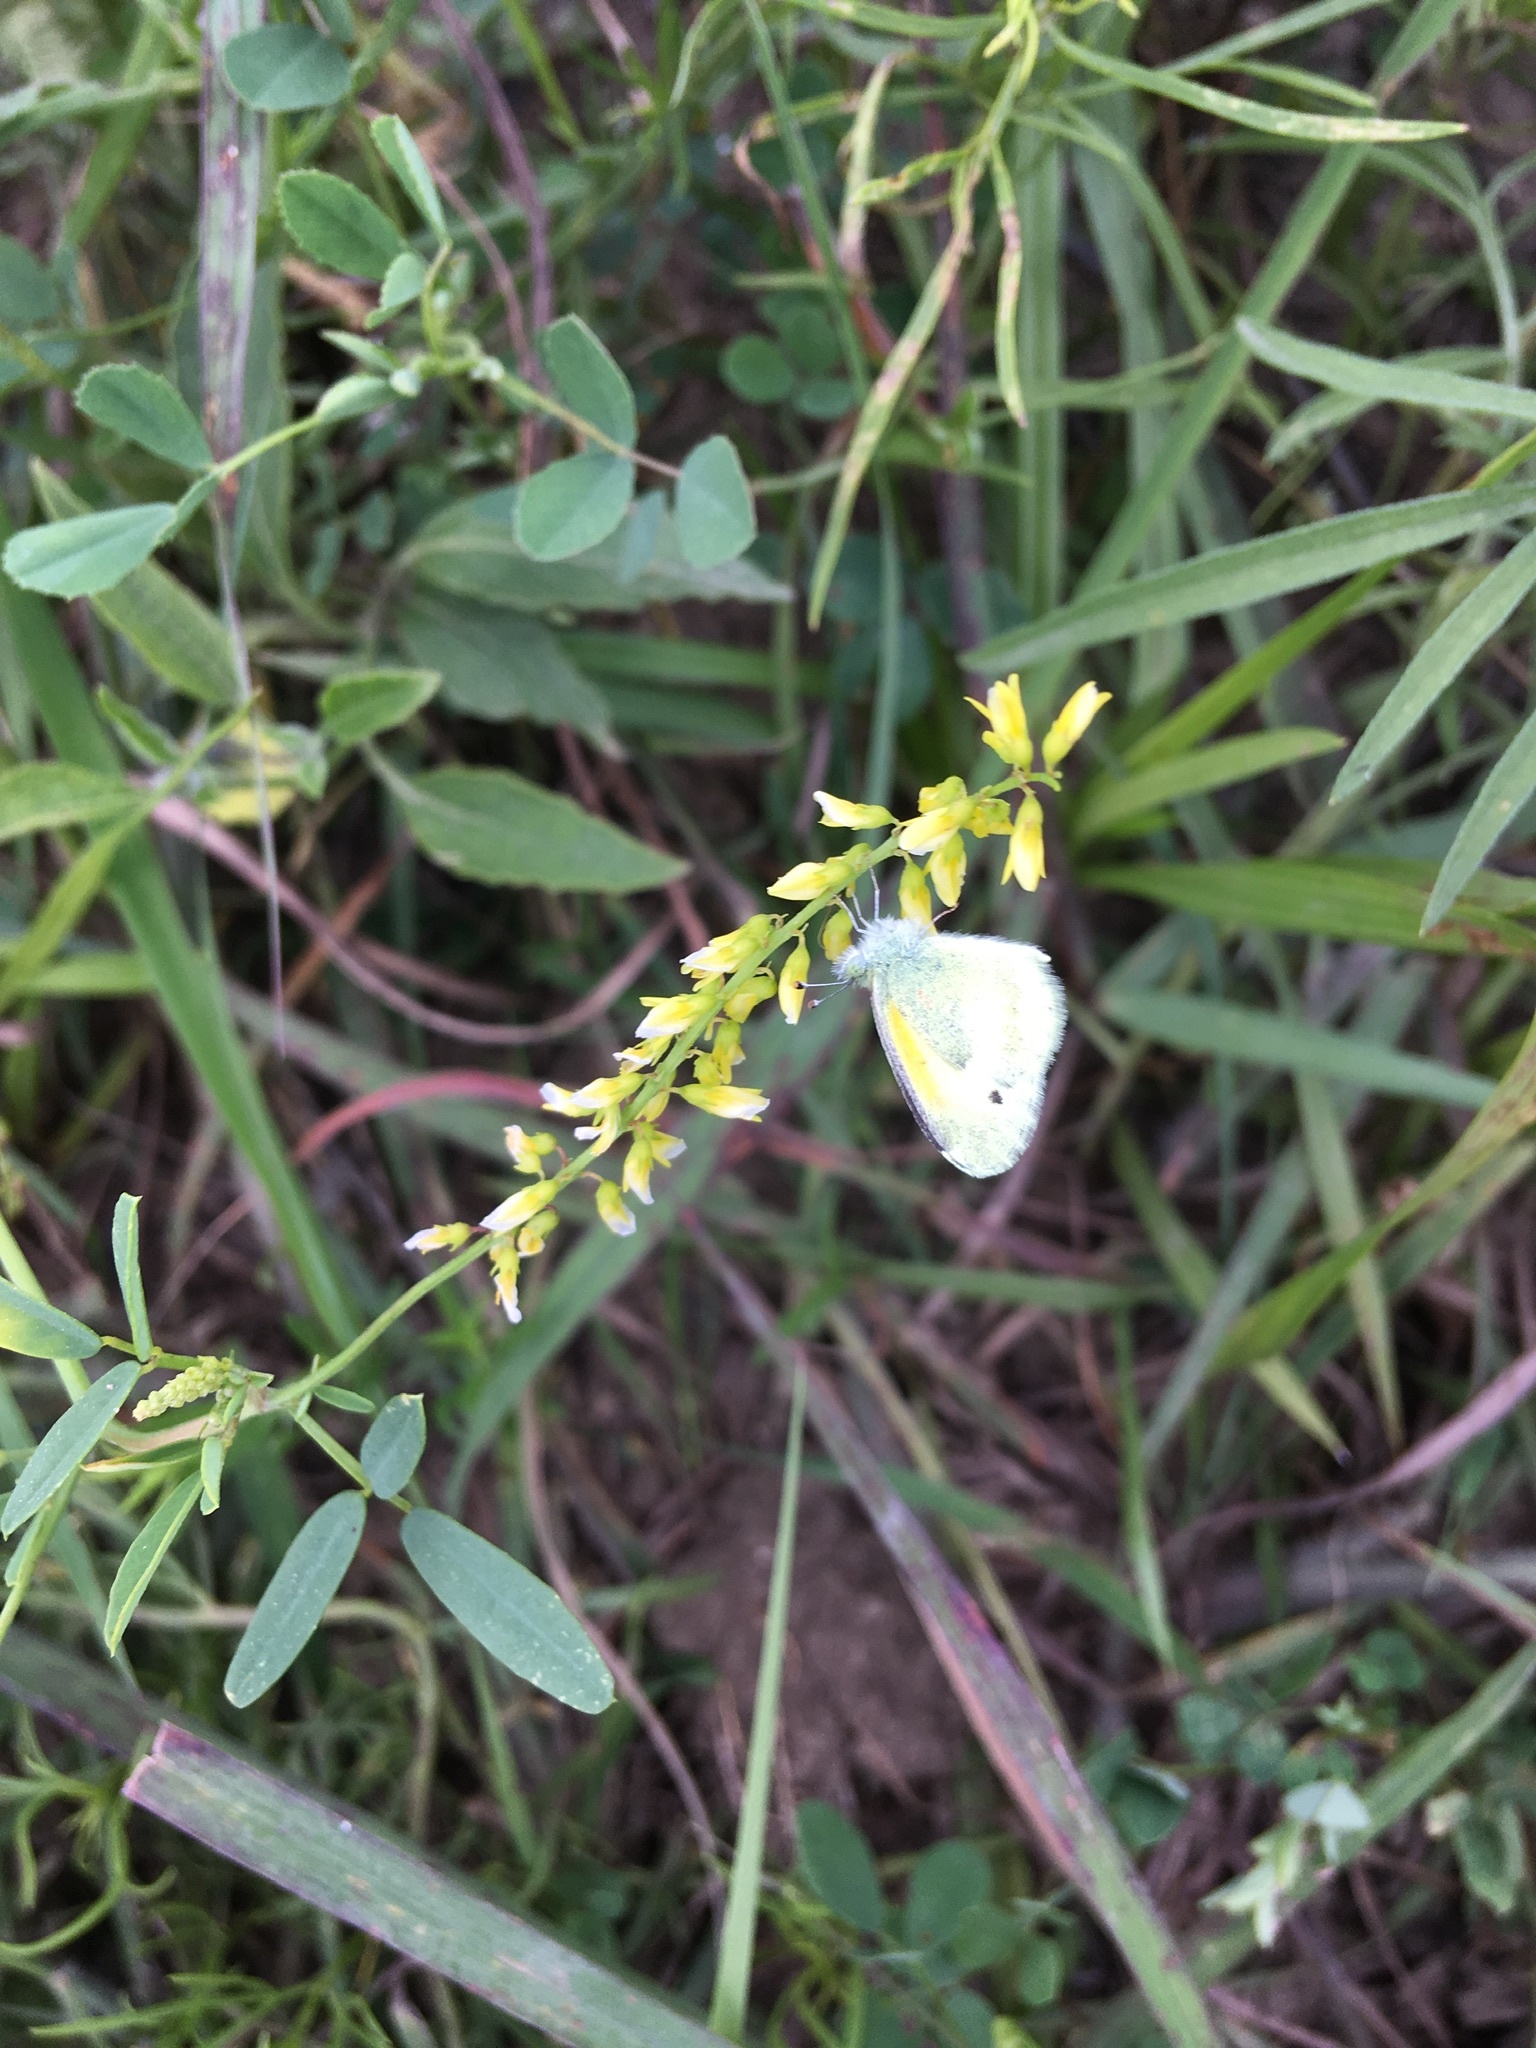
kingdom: Animalia
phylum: Arthropoda
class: Insecta
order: Lepidoptera
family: Pieridae
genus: Nathalis
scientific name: Nathalis iole
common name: Dainty sulphur
